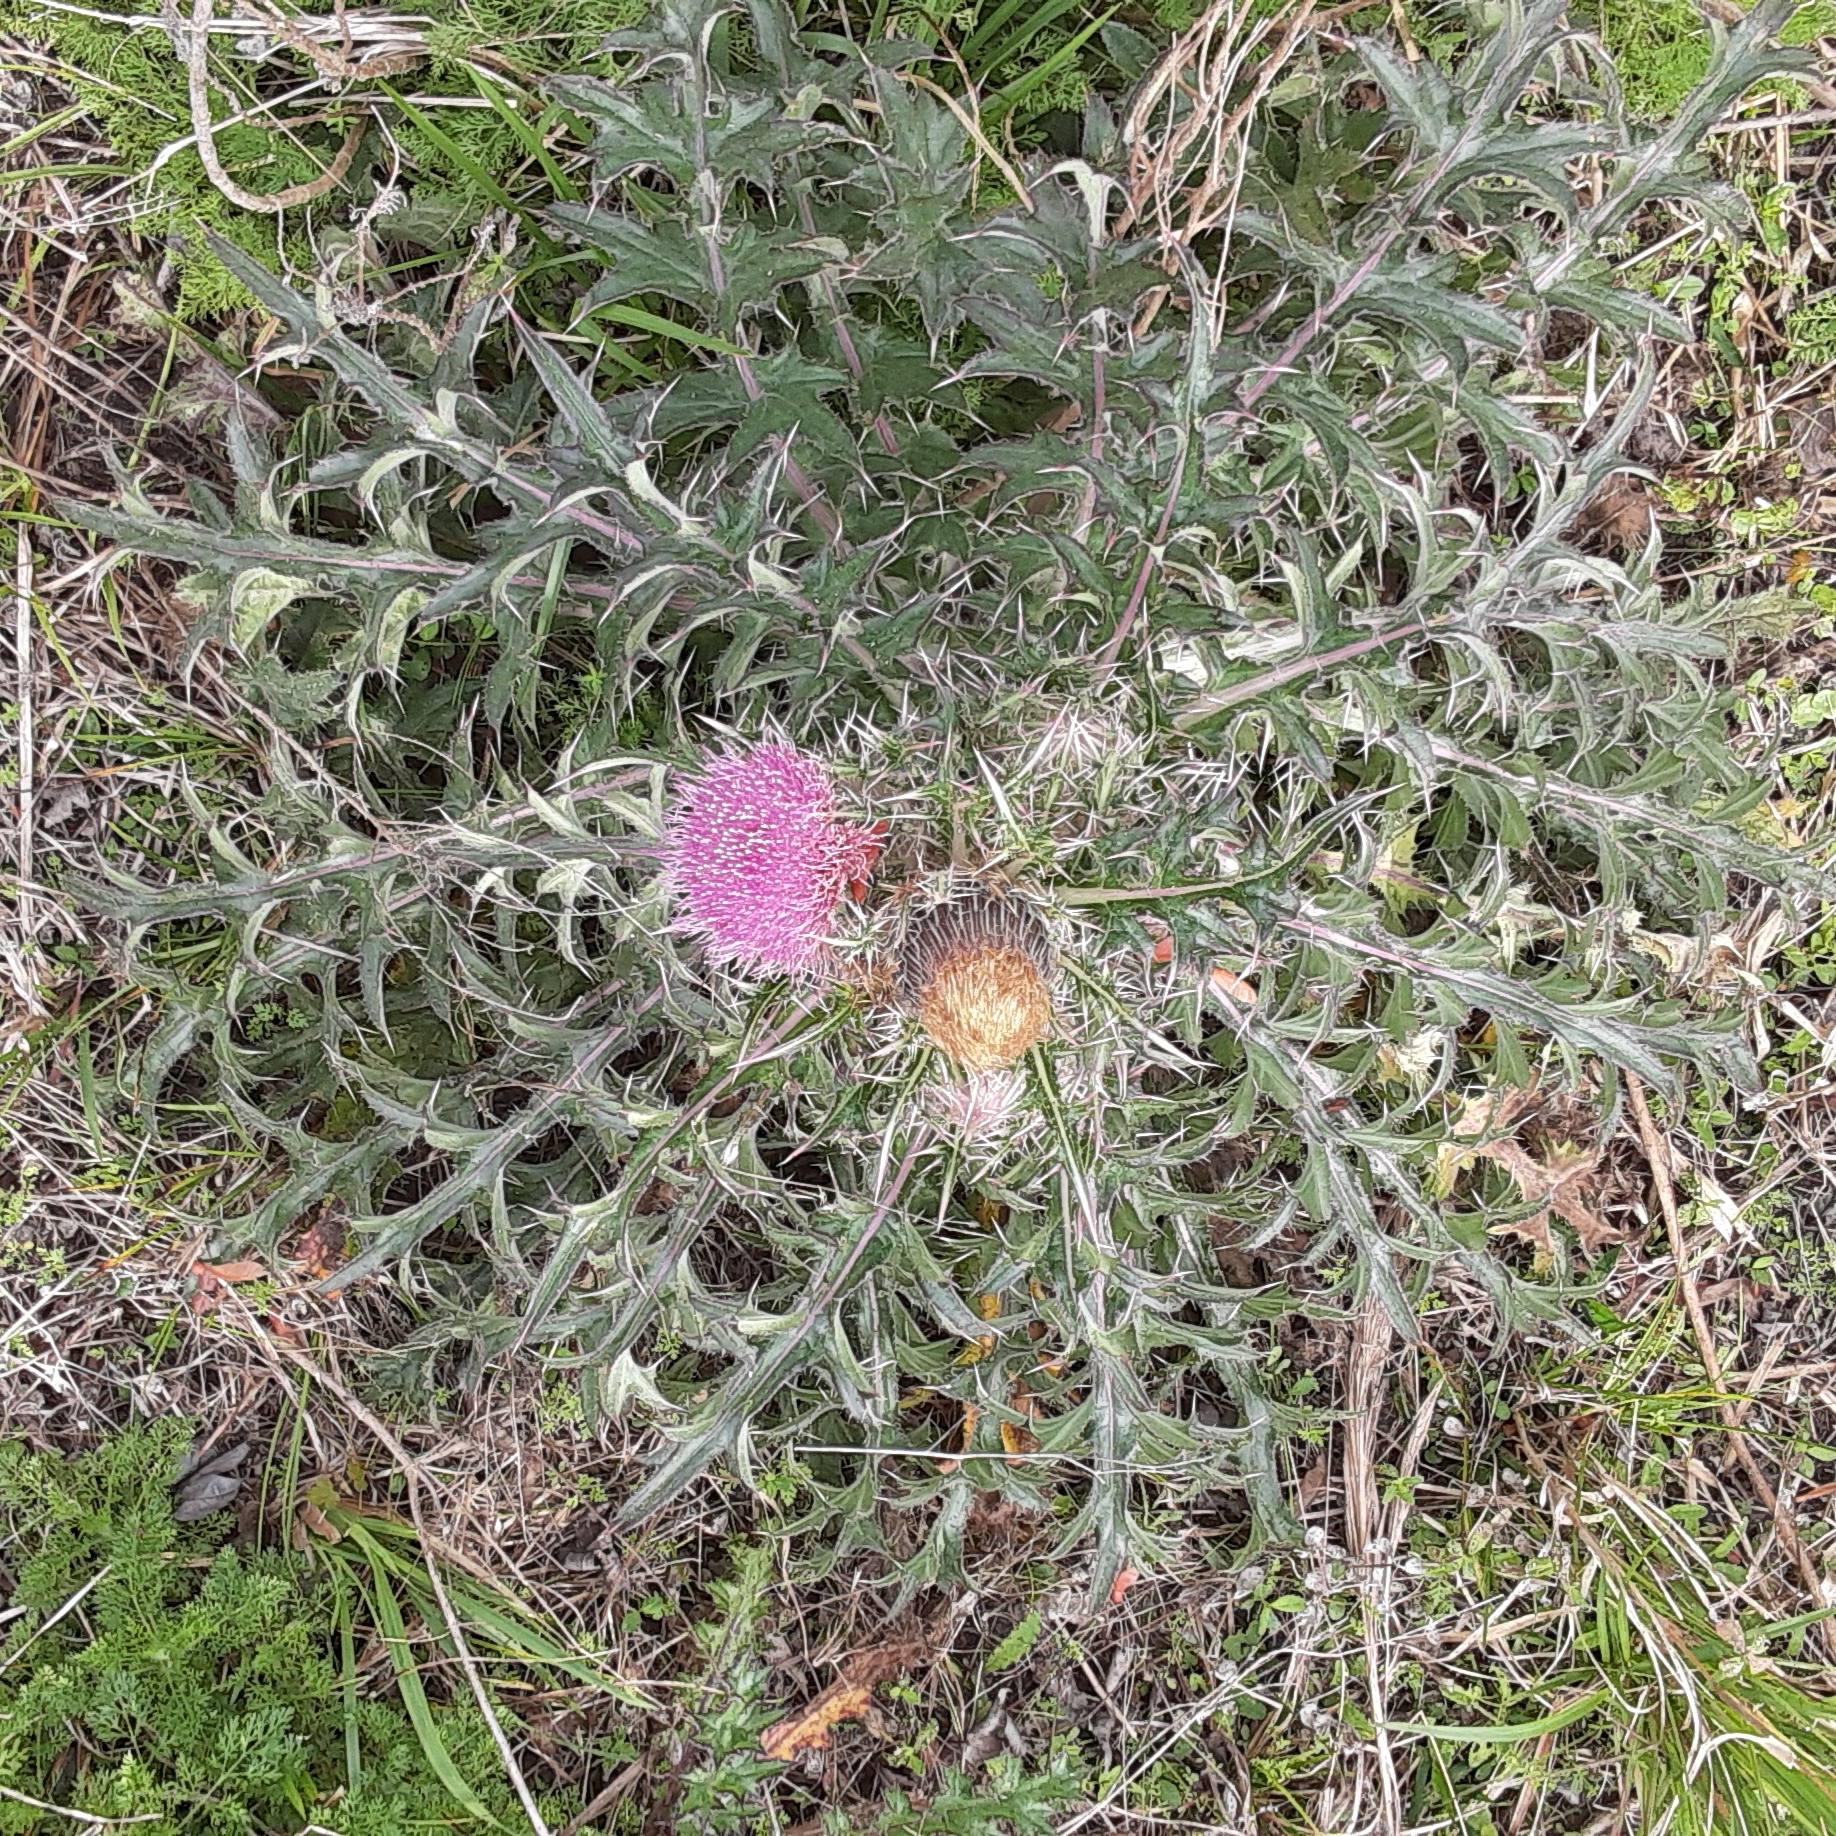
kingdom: Plantae
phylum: Tracheophyta
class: Magnoliopsida
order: Asterales
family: Asteraceae
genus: Cirsium
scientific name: Cirsium horridulum
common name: Bristly thistle
